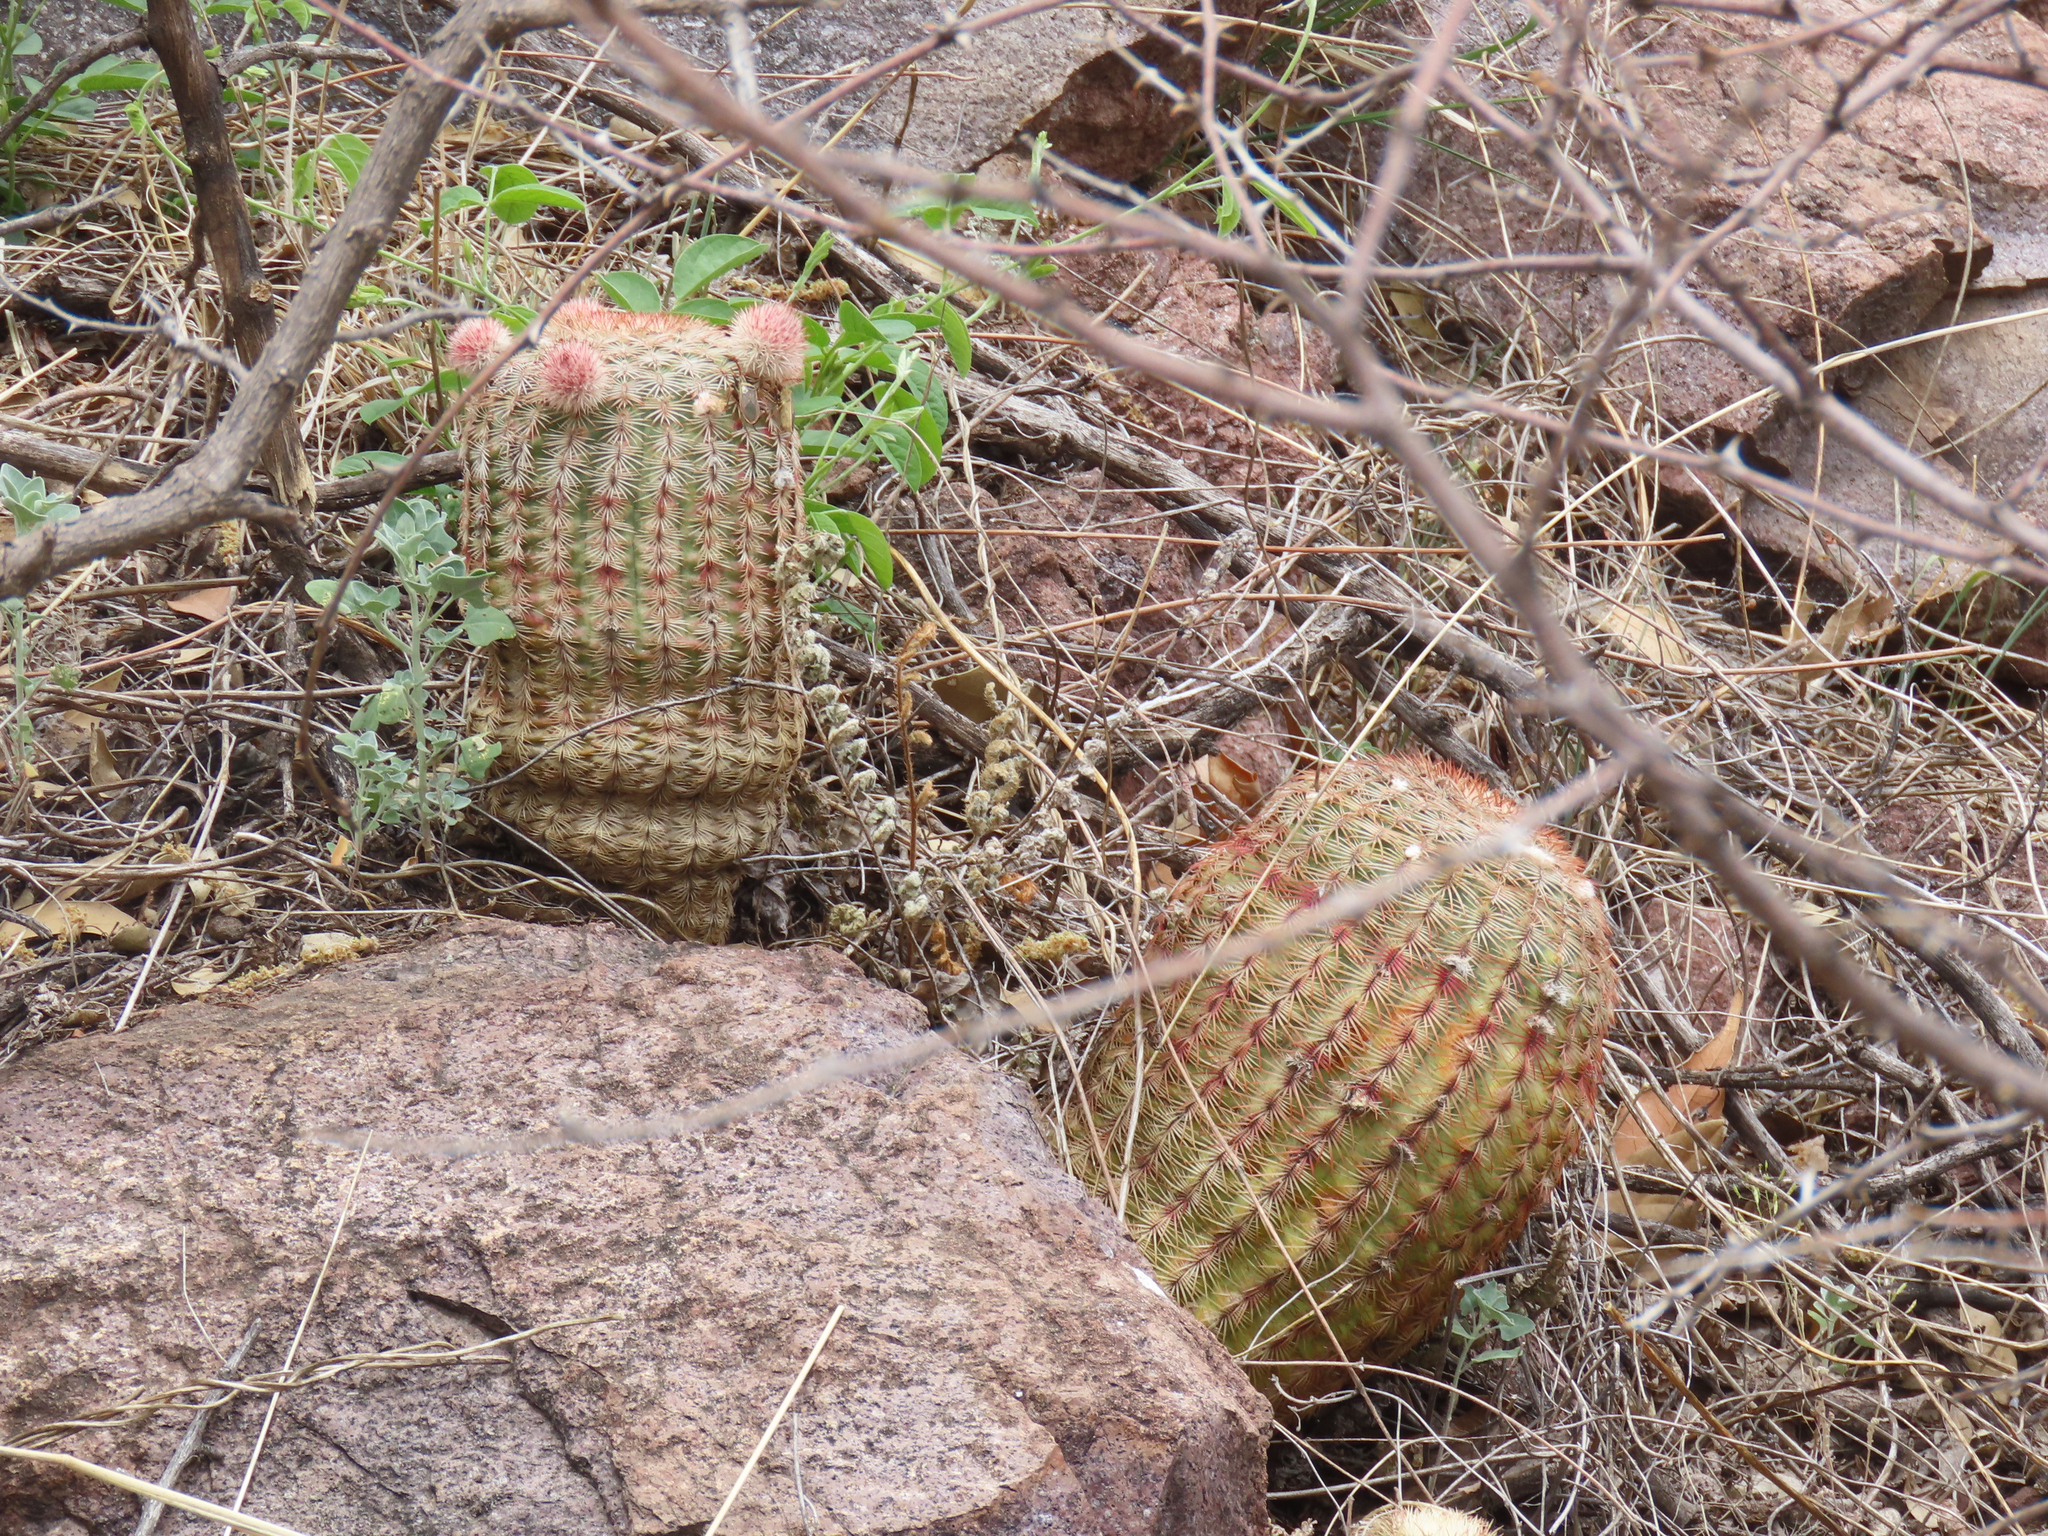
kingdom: Plantae
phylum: Tracheophyta
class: Magnoliopsida
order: Caryophyllales
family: Cactaceae
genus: Echinocereus
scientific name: Echinocereus rigidissimus
